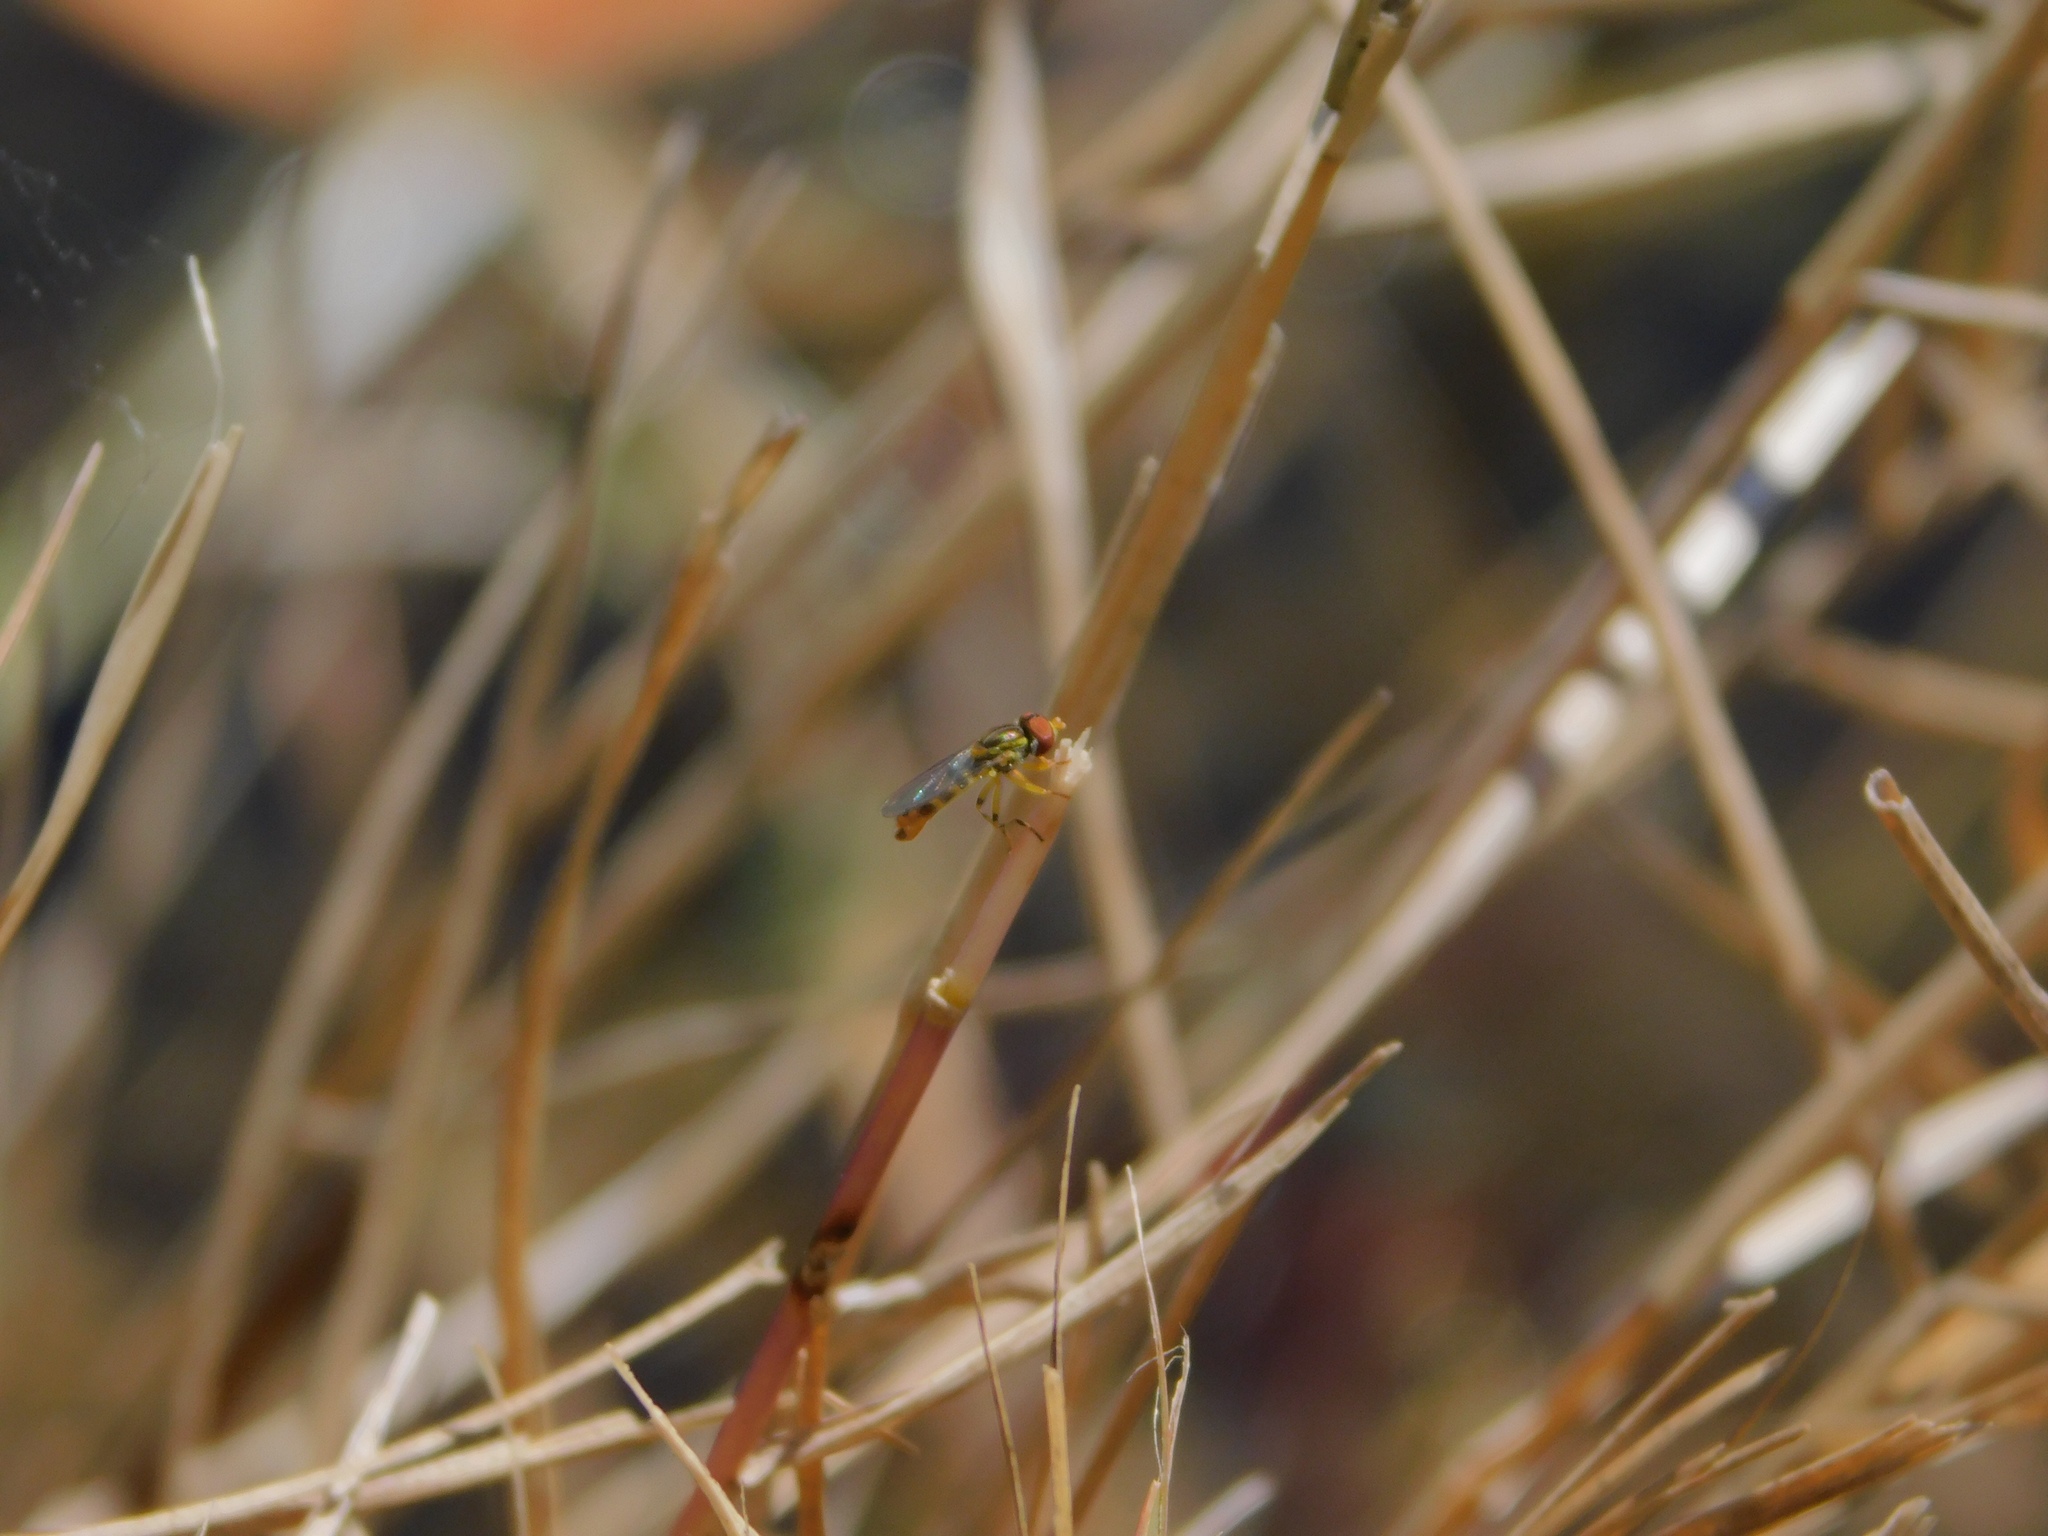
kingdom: Animalia
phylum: Arthropoda
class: Insecta
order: Diptera
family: Syrphidae
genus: Toxomerus
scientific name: Toxomerus floralis
